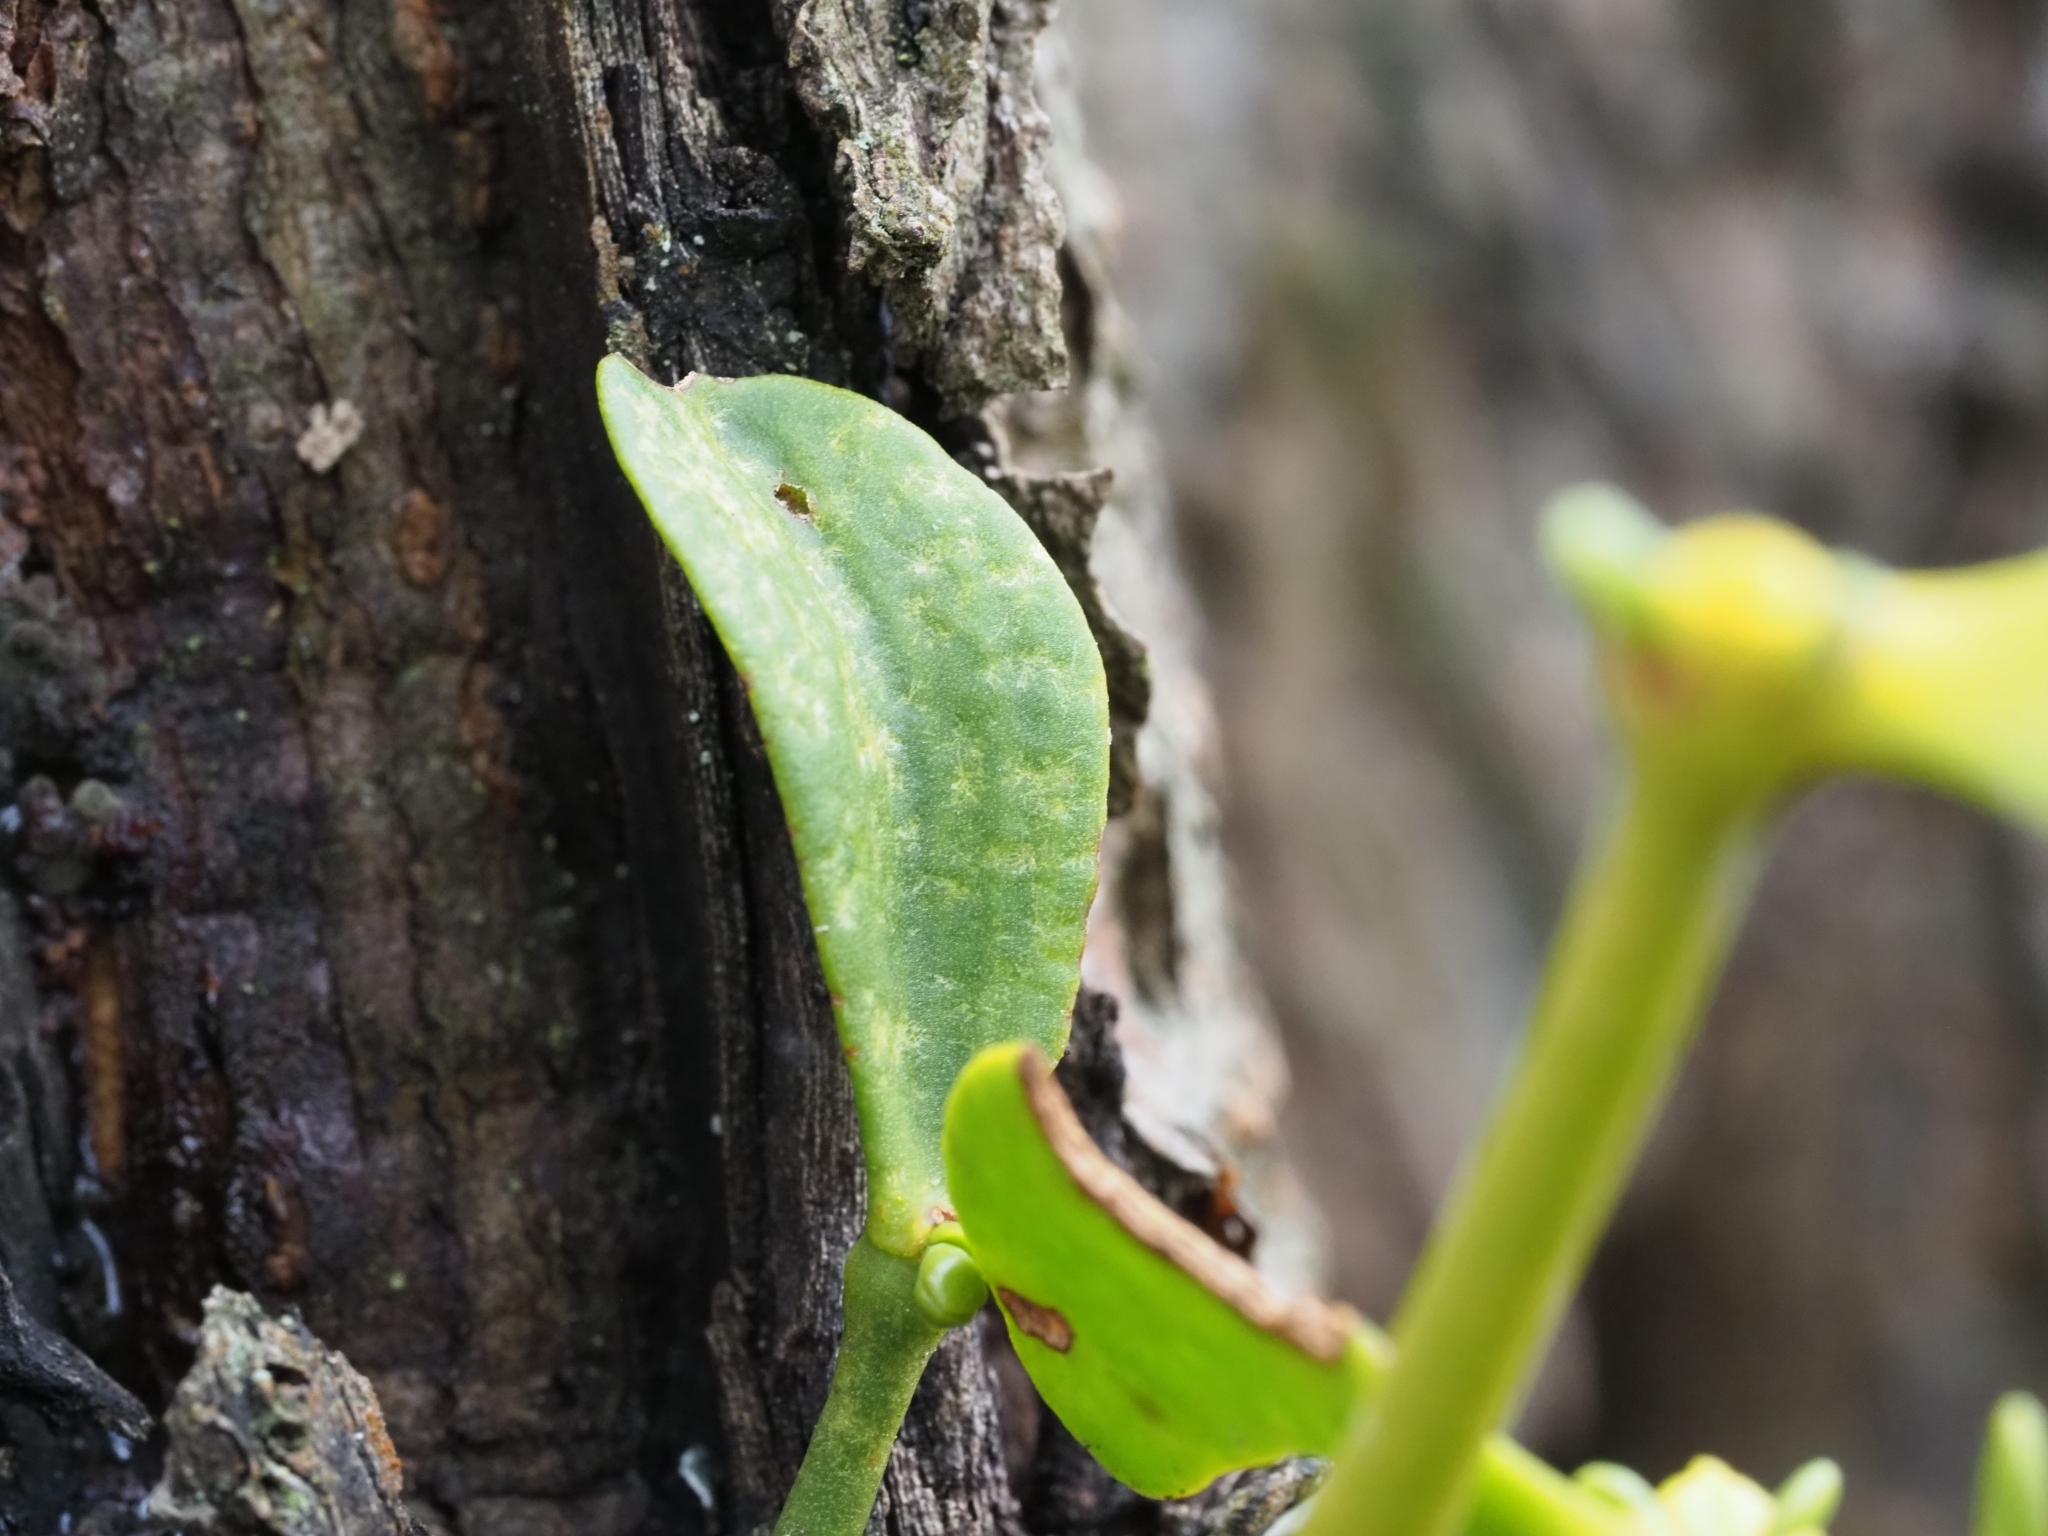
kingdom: Plantae
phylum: Tracheophyta
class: Magnoliopsida
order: Santalales
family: Viscaceae
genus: Viscum
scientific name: Viscum album
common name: Mistletoe
